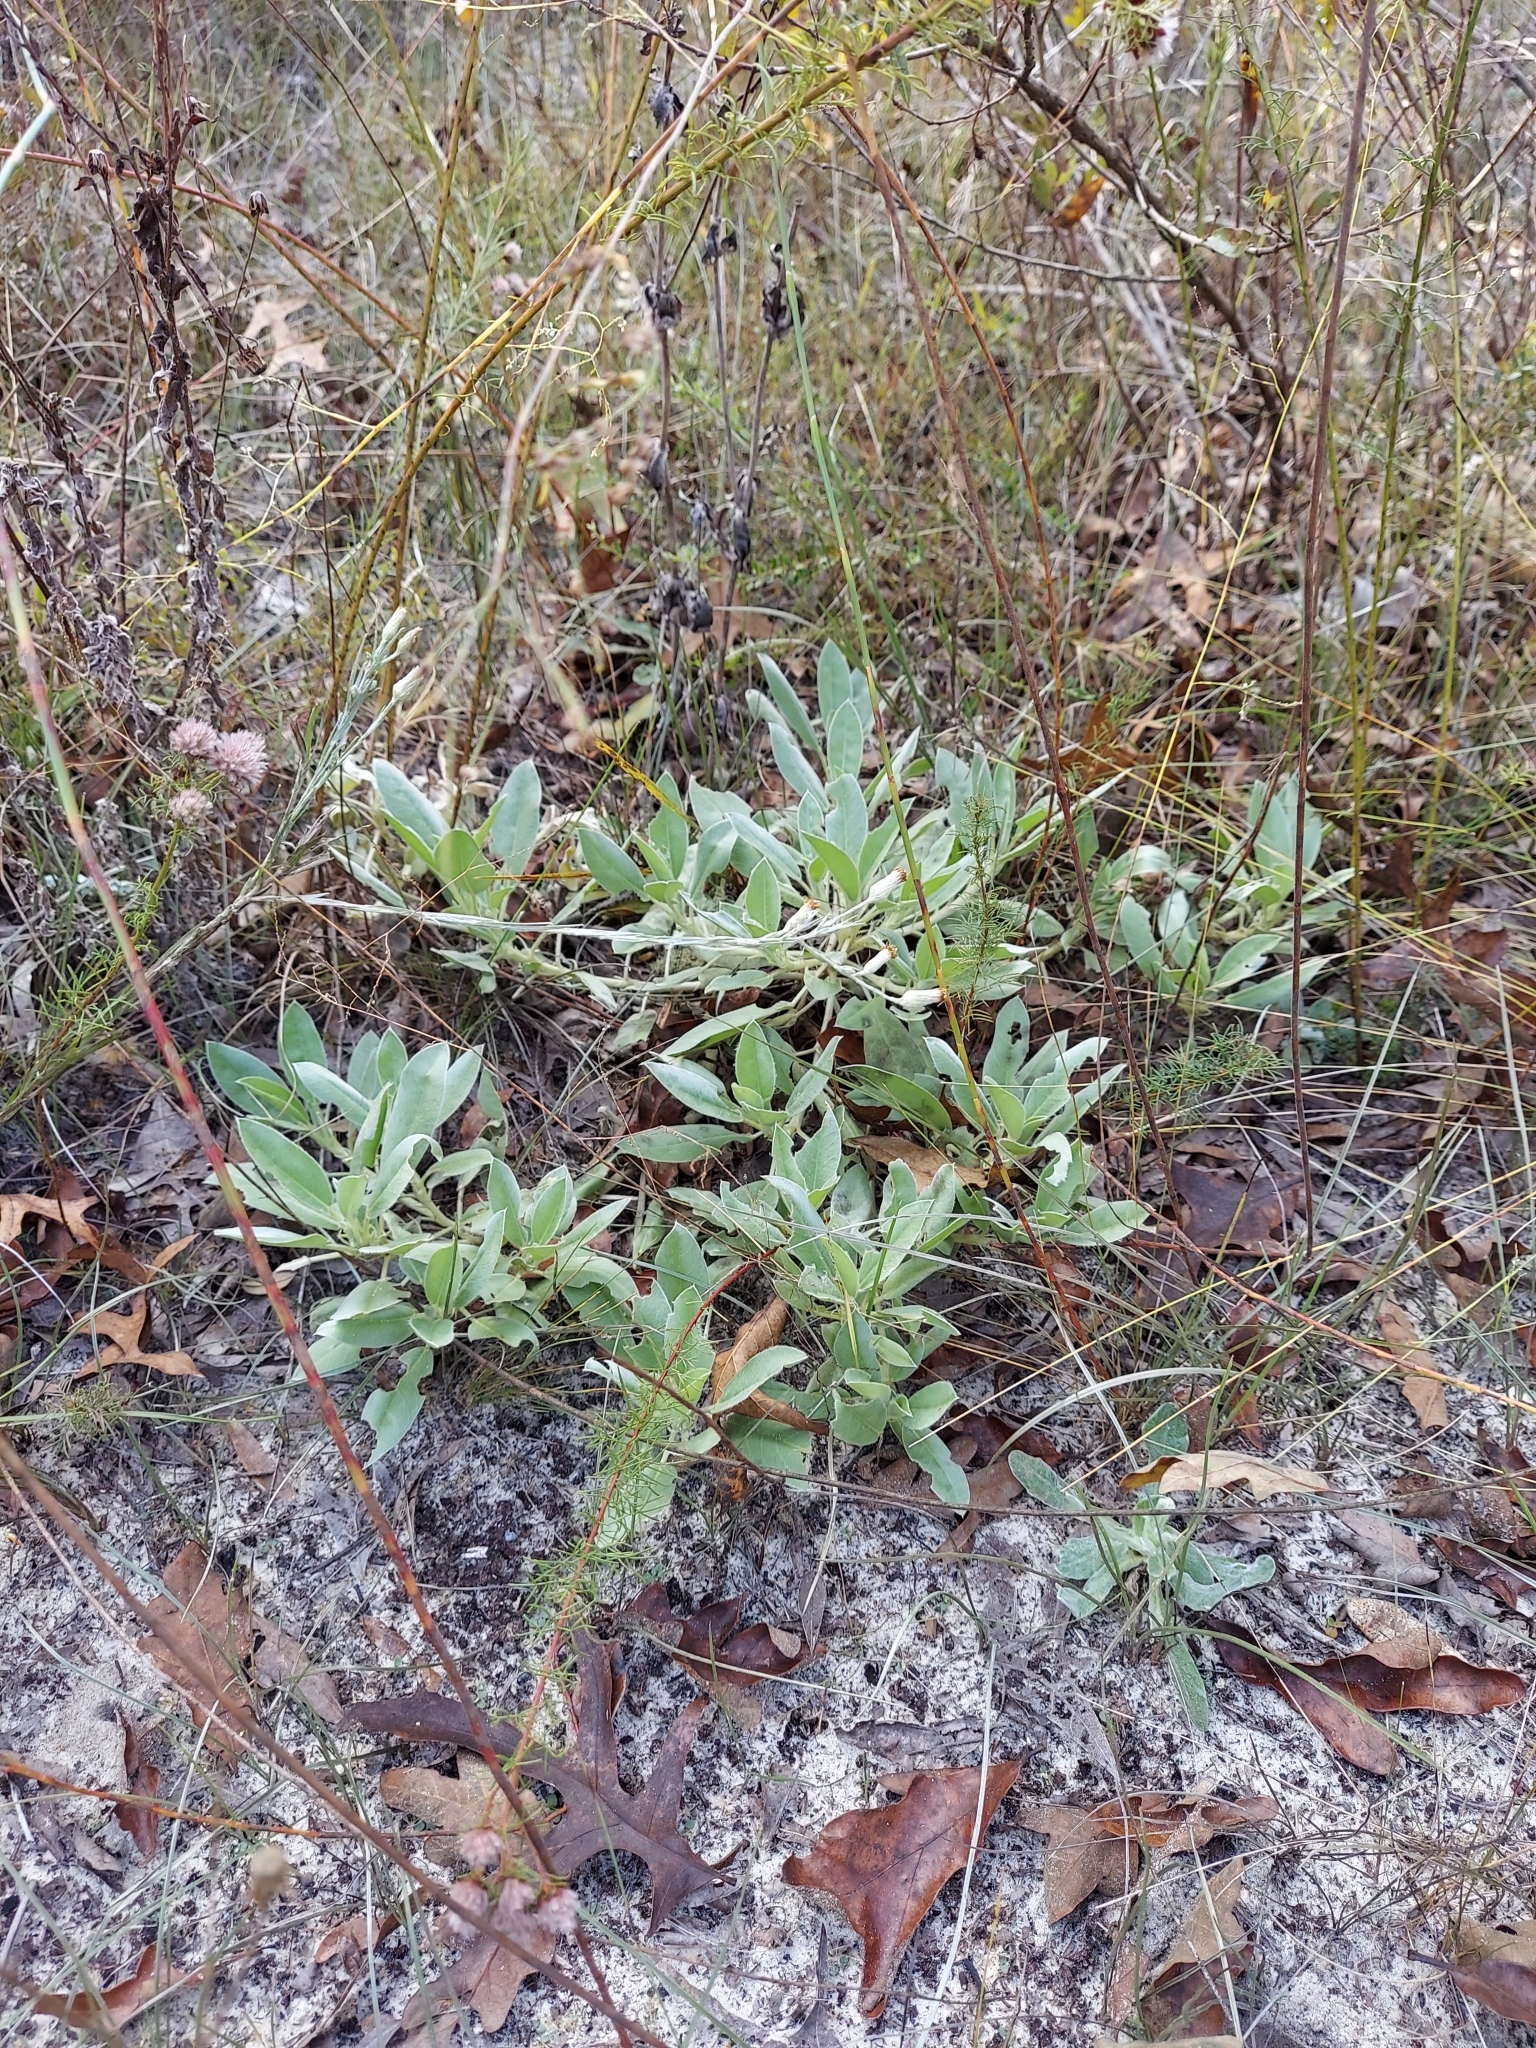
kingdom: Plantae
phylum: Tracheophyta
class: Magnoliopsida
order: Fabales
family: Fabaceae
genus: Lupinus
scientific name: Lupinus
